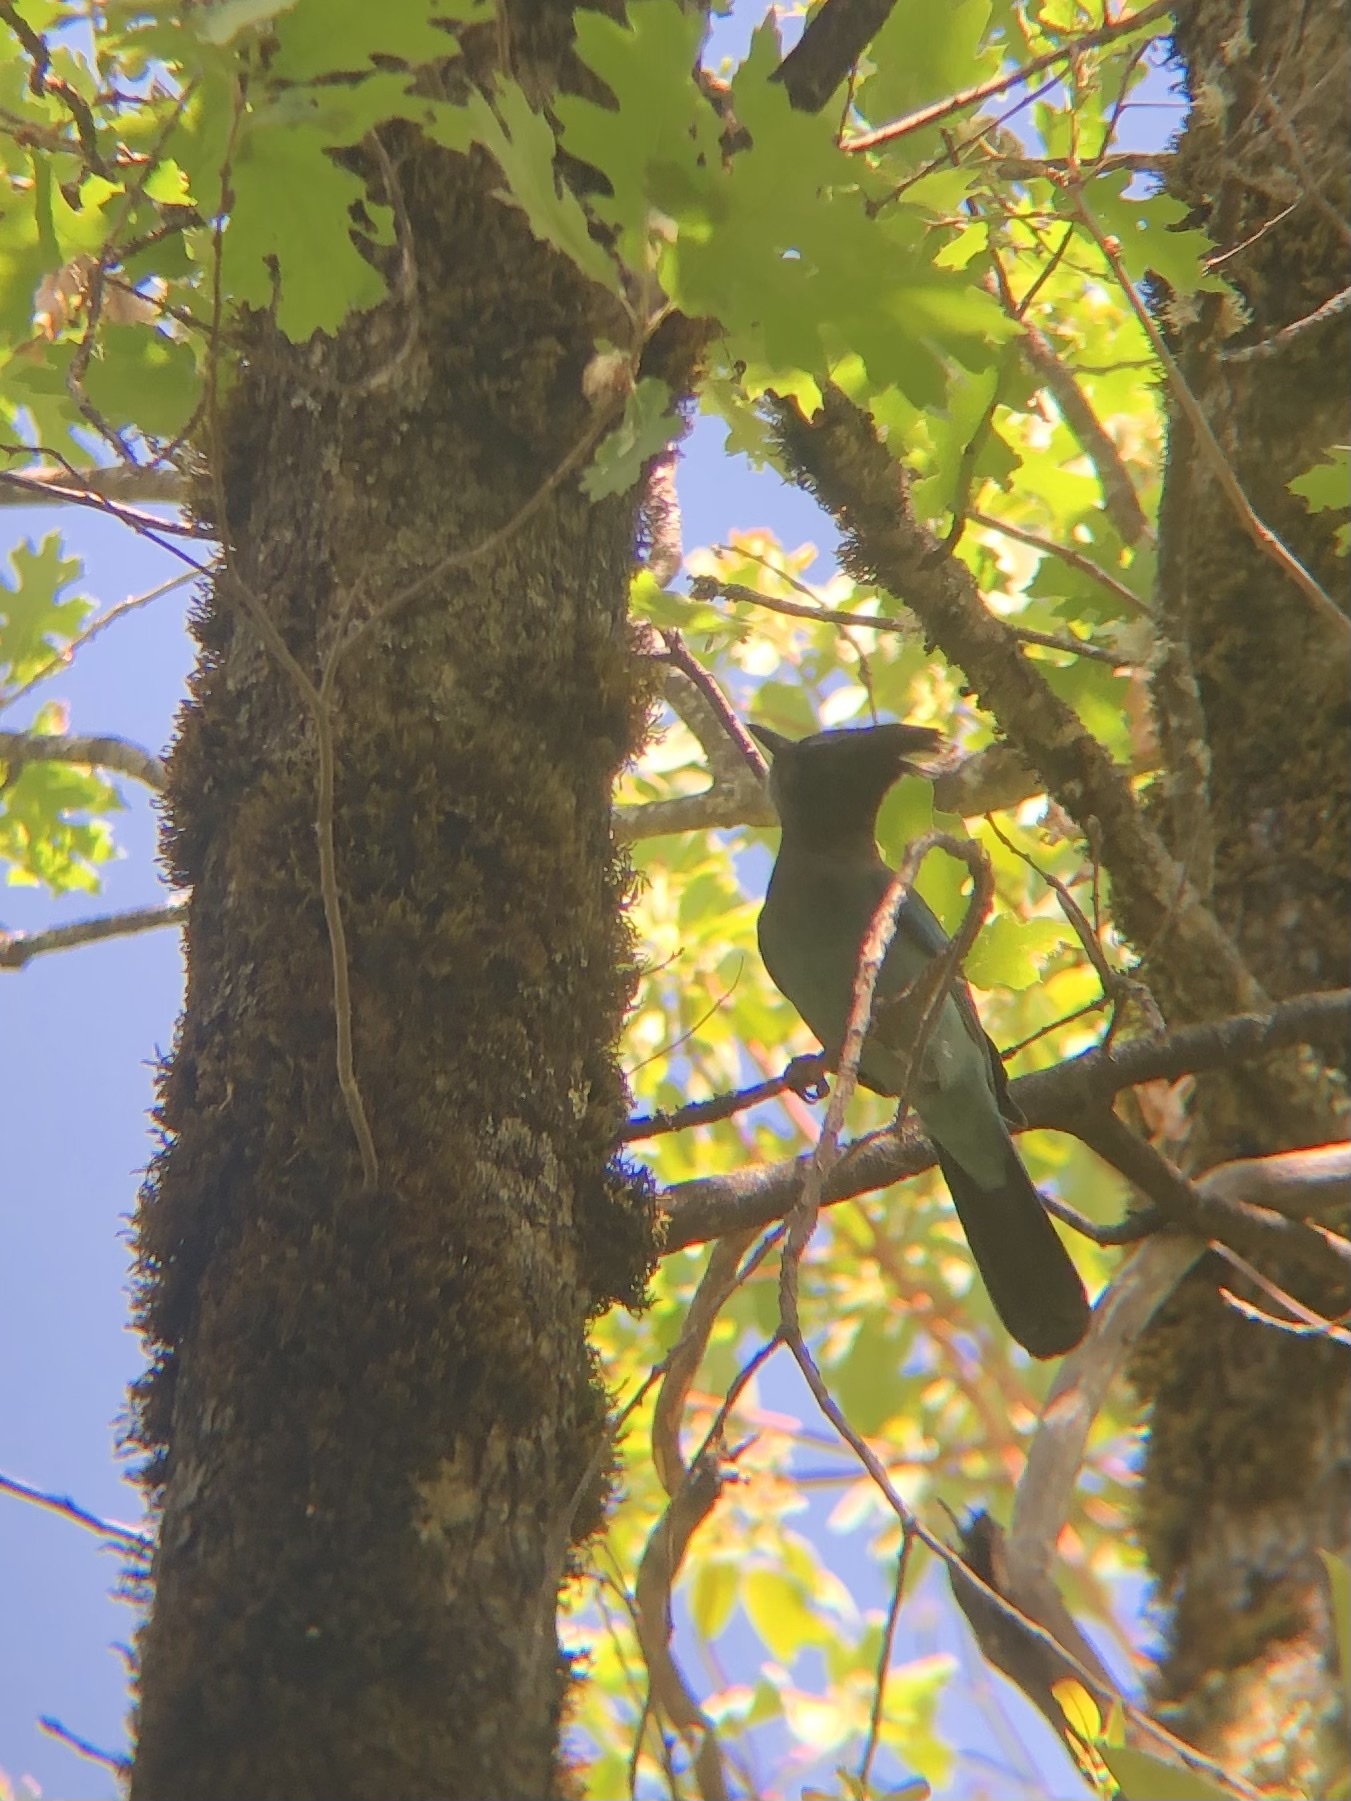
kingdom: Animalia
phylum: Chordata
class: Aves
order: Passeriformes
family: Corvidae
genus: Cyanocitta
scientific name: Cyanocitta stelleri
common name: Steller's jay
